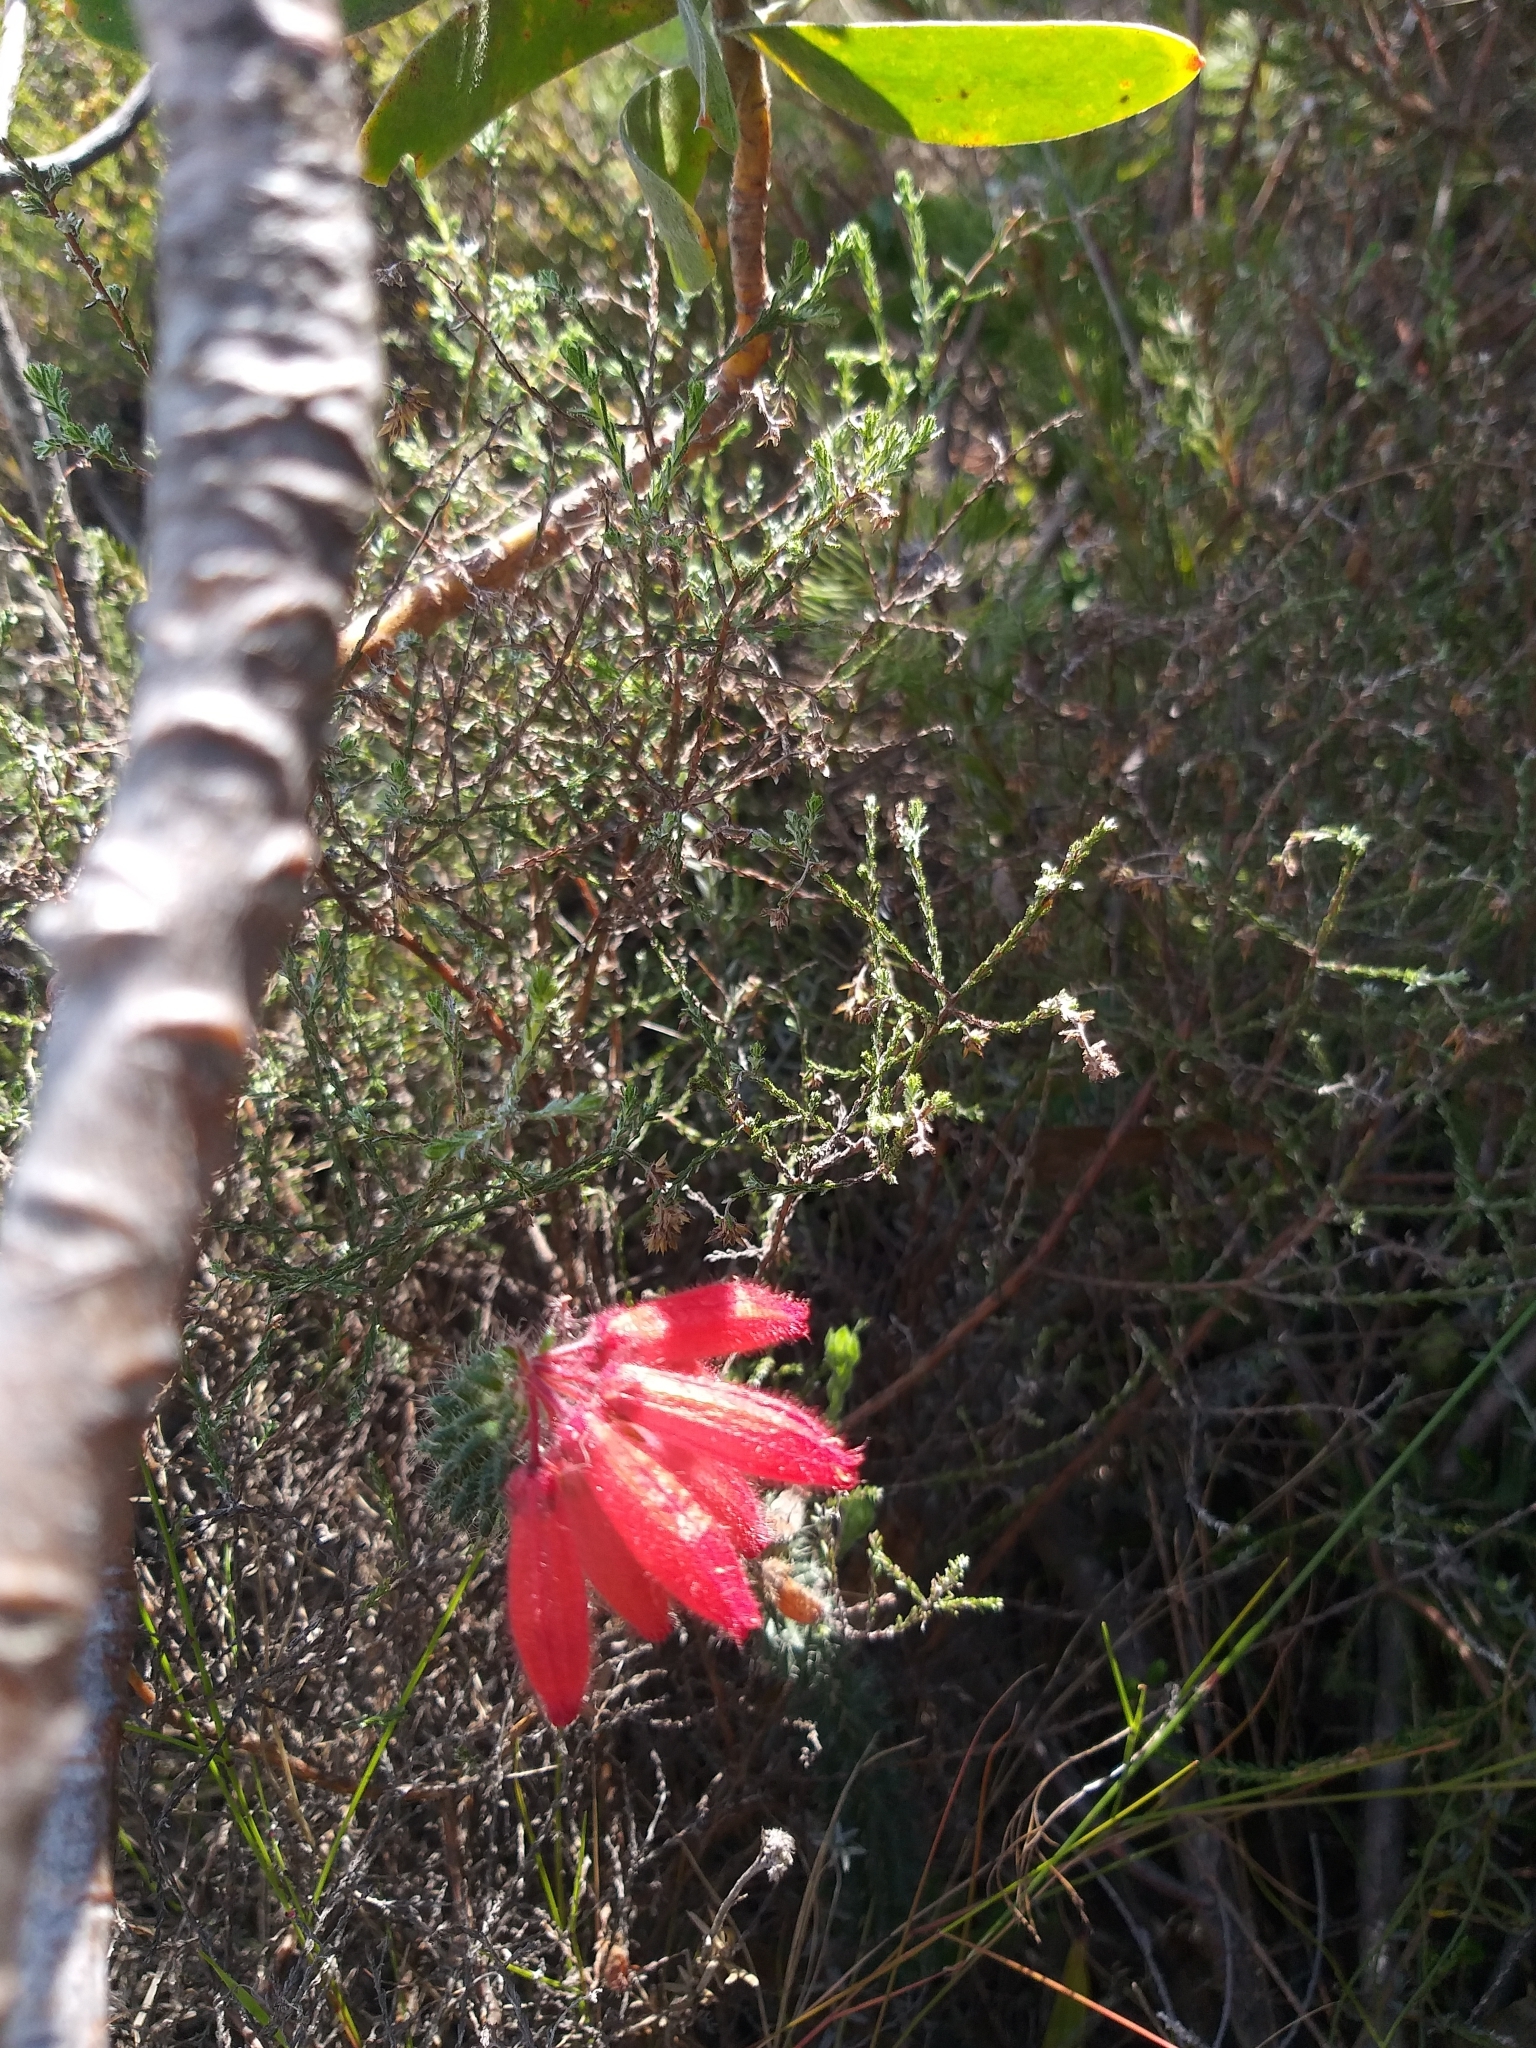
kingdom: Plantae
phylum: Tracheophyta
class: Magnoliopsida
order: Ericales
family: Ericaceae
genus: Erica
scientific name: Erica cerinthoides
